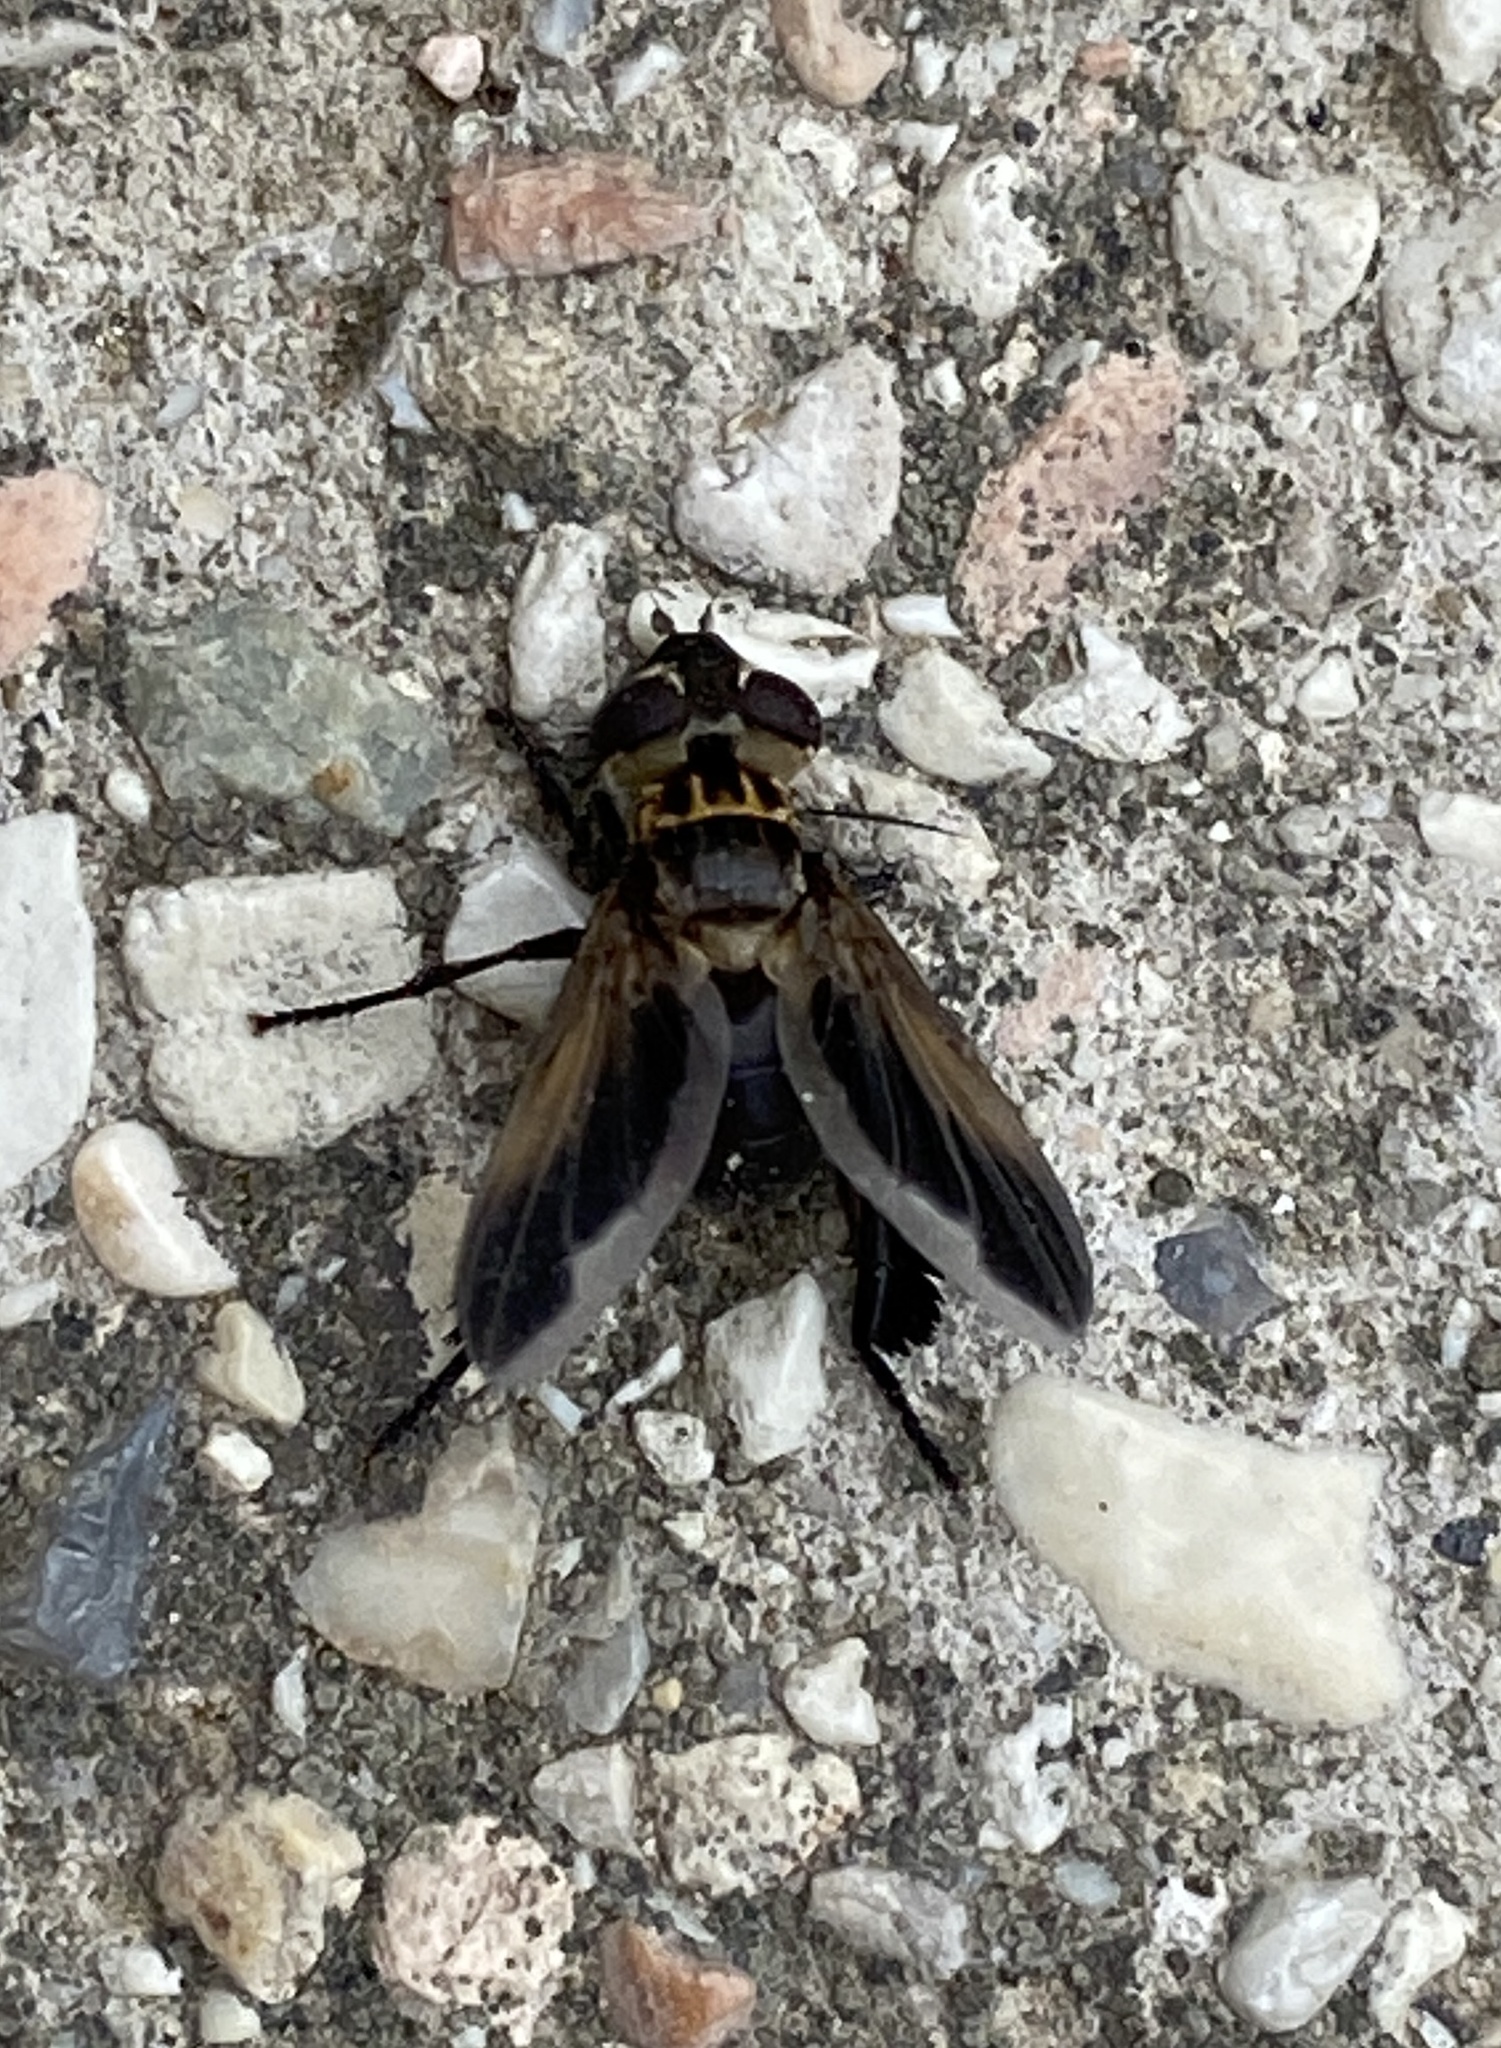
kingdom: Animalia
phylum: Arthropoda
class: Insecta
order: Diptera
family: Tachinidae
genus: Trichopoda
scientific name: Trichopoda pictipennis
